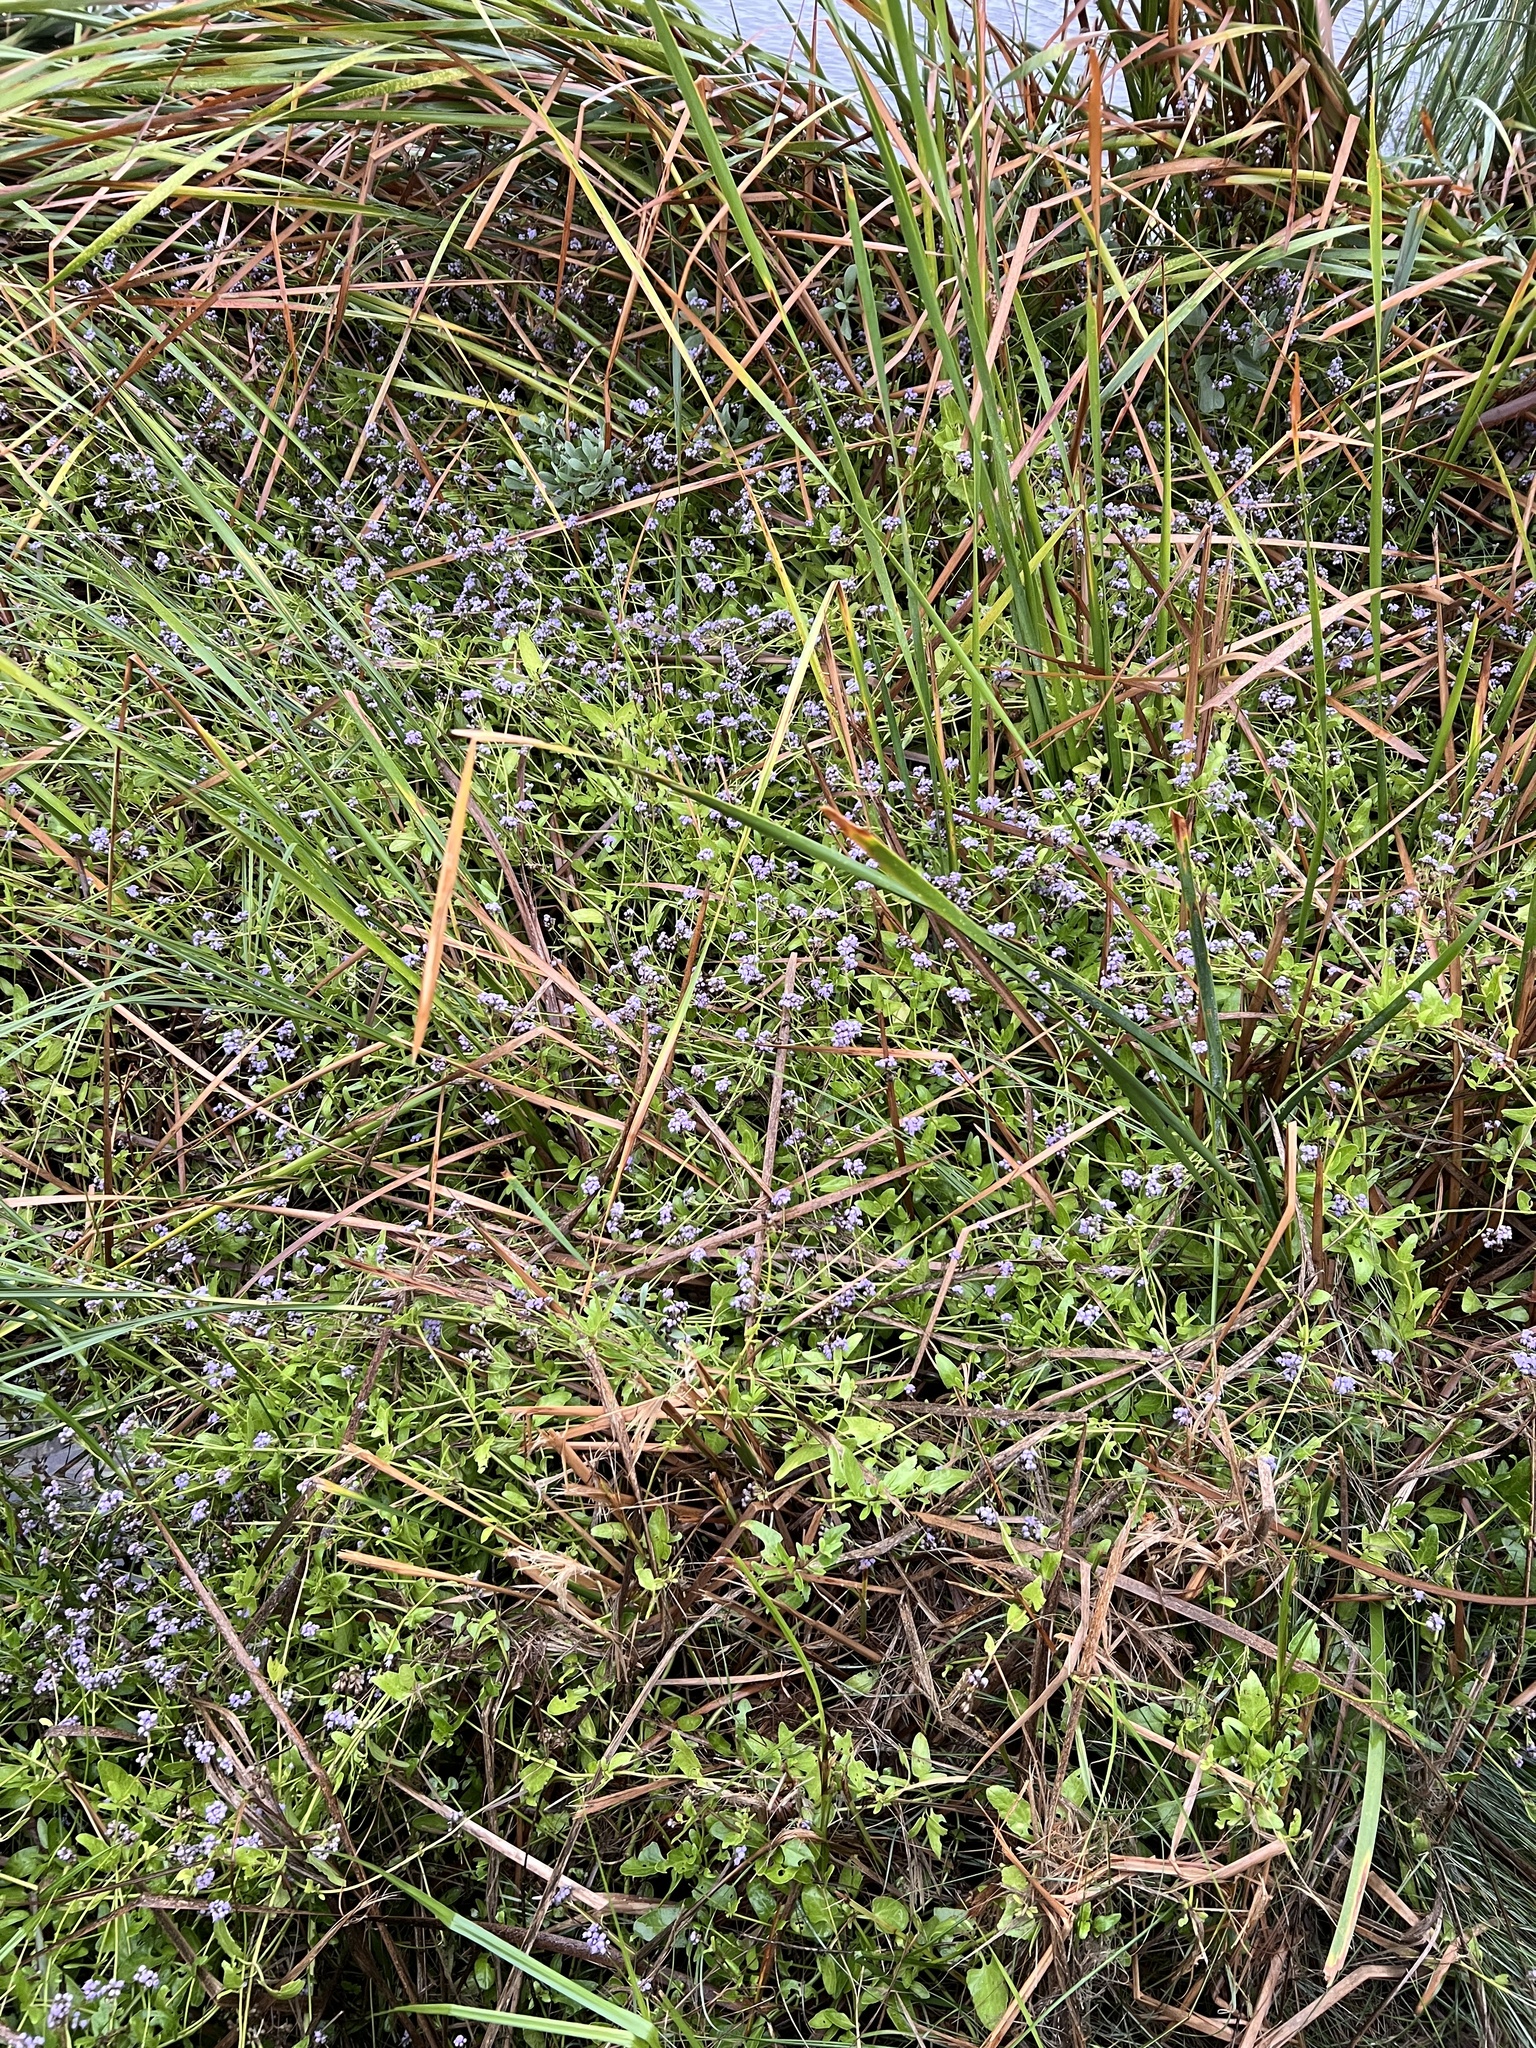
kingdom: Plantae
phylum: Tracheophyta
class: Magnoliopsida
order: Asterales
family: Asteraceae
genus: Conoclinium
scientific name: Conoclinium betonicifolium
